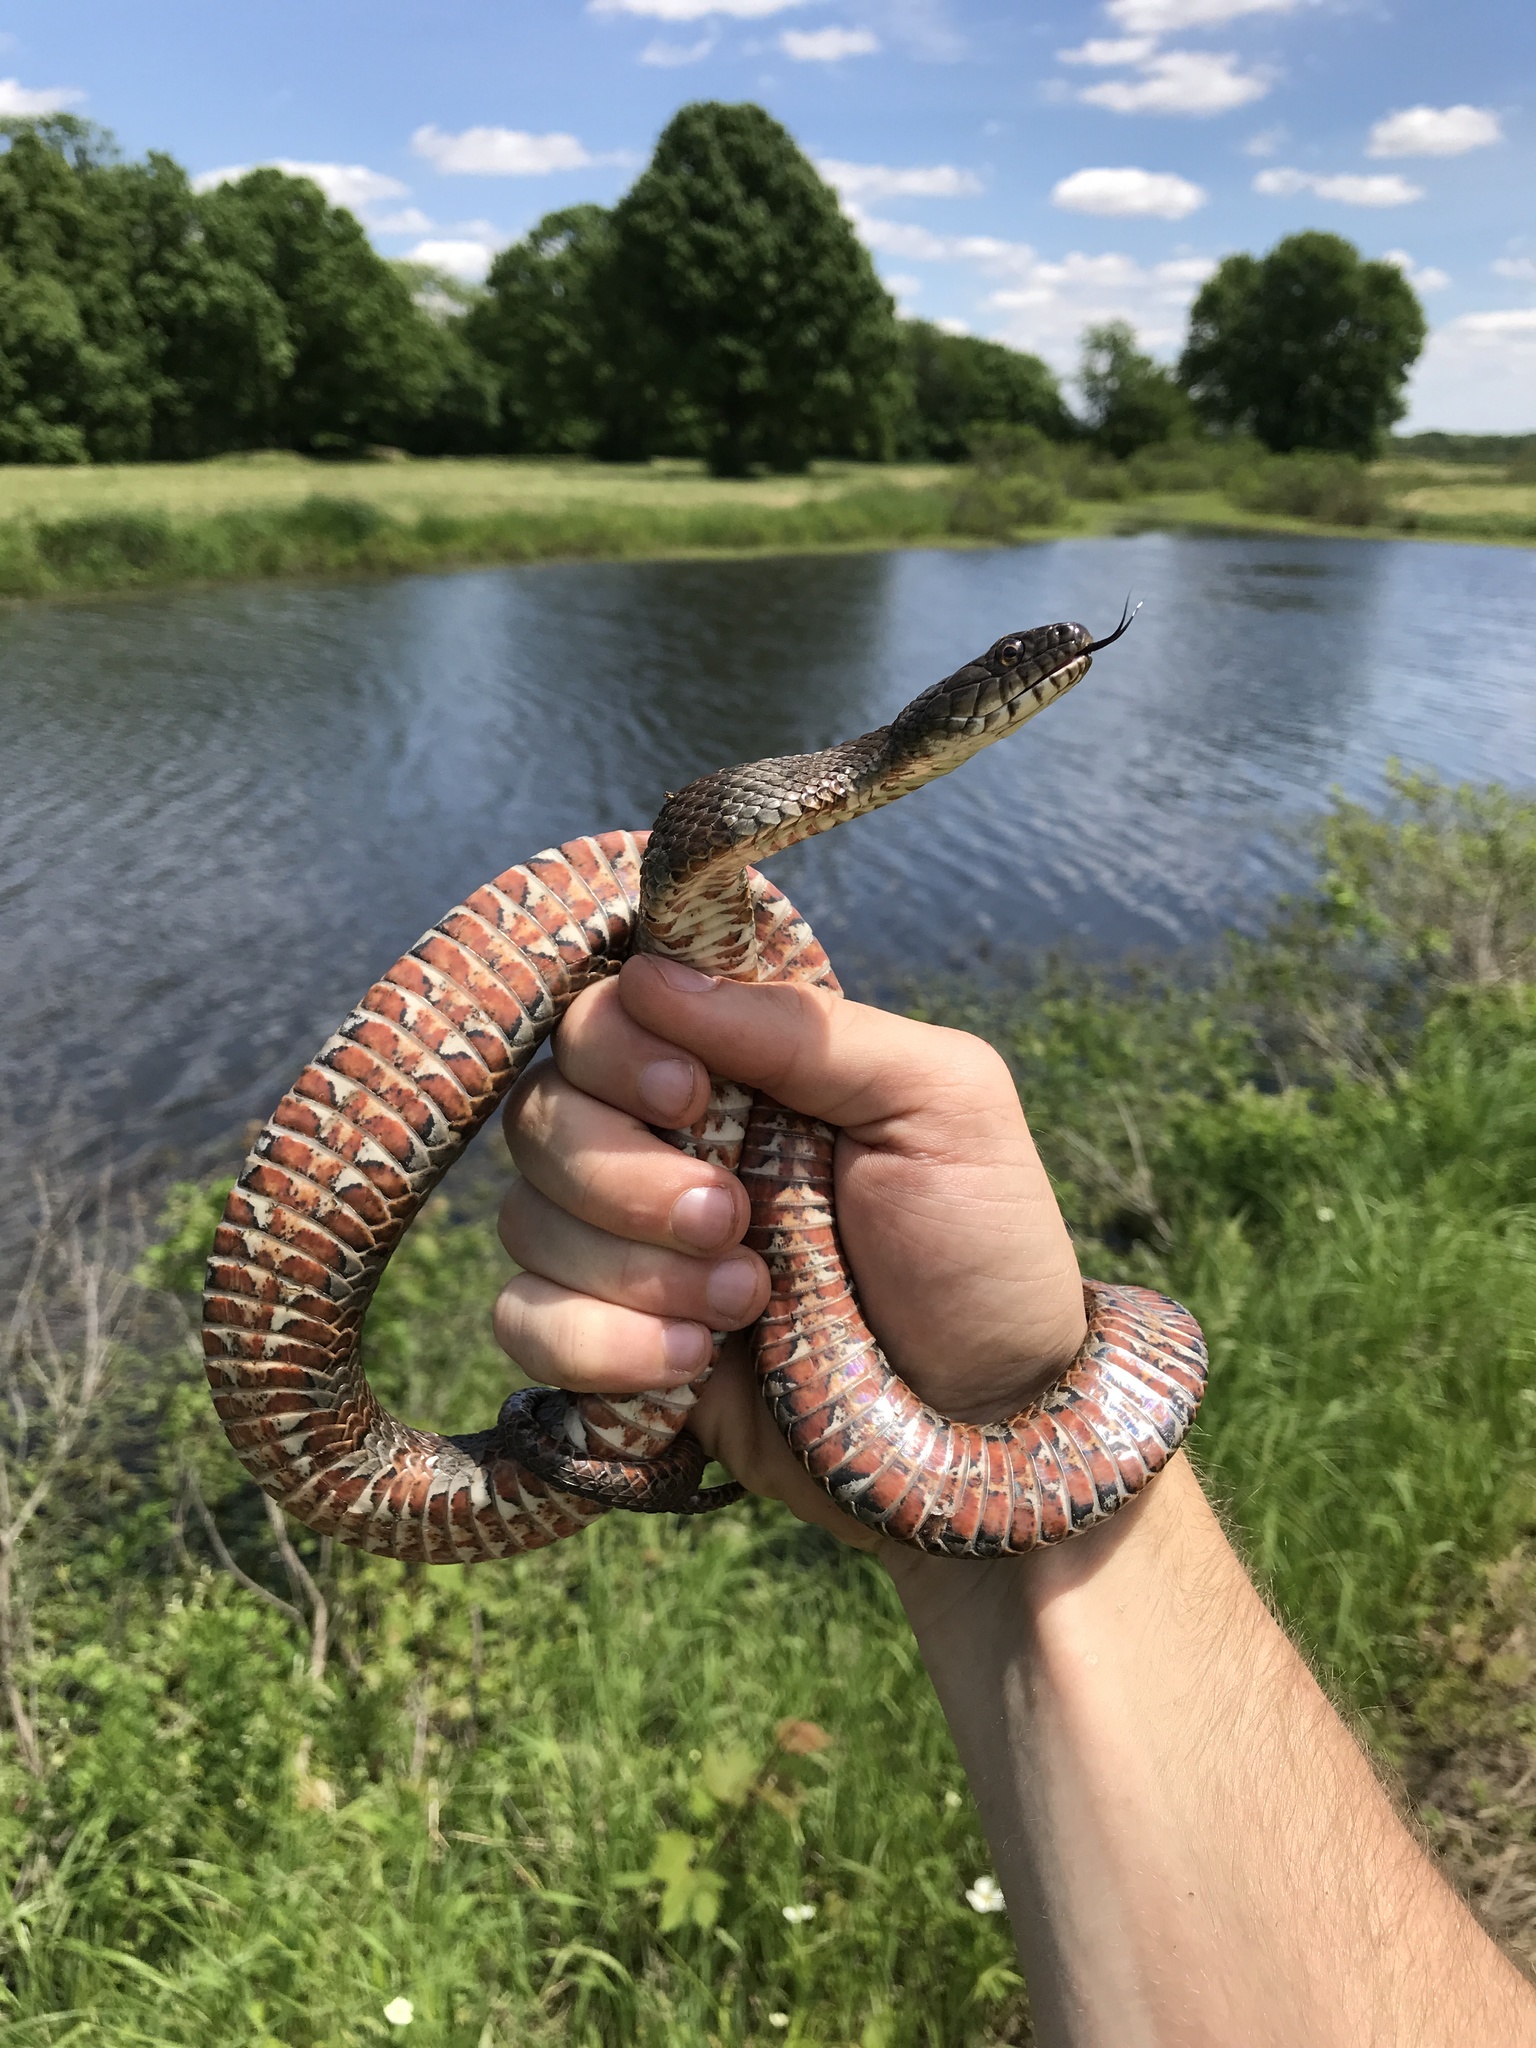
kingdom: Animalia
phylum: Chordata
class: Squamata
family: Colubridae
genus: Nerodia
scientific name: Nerodia sipedon
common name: Northern water snake
